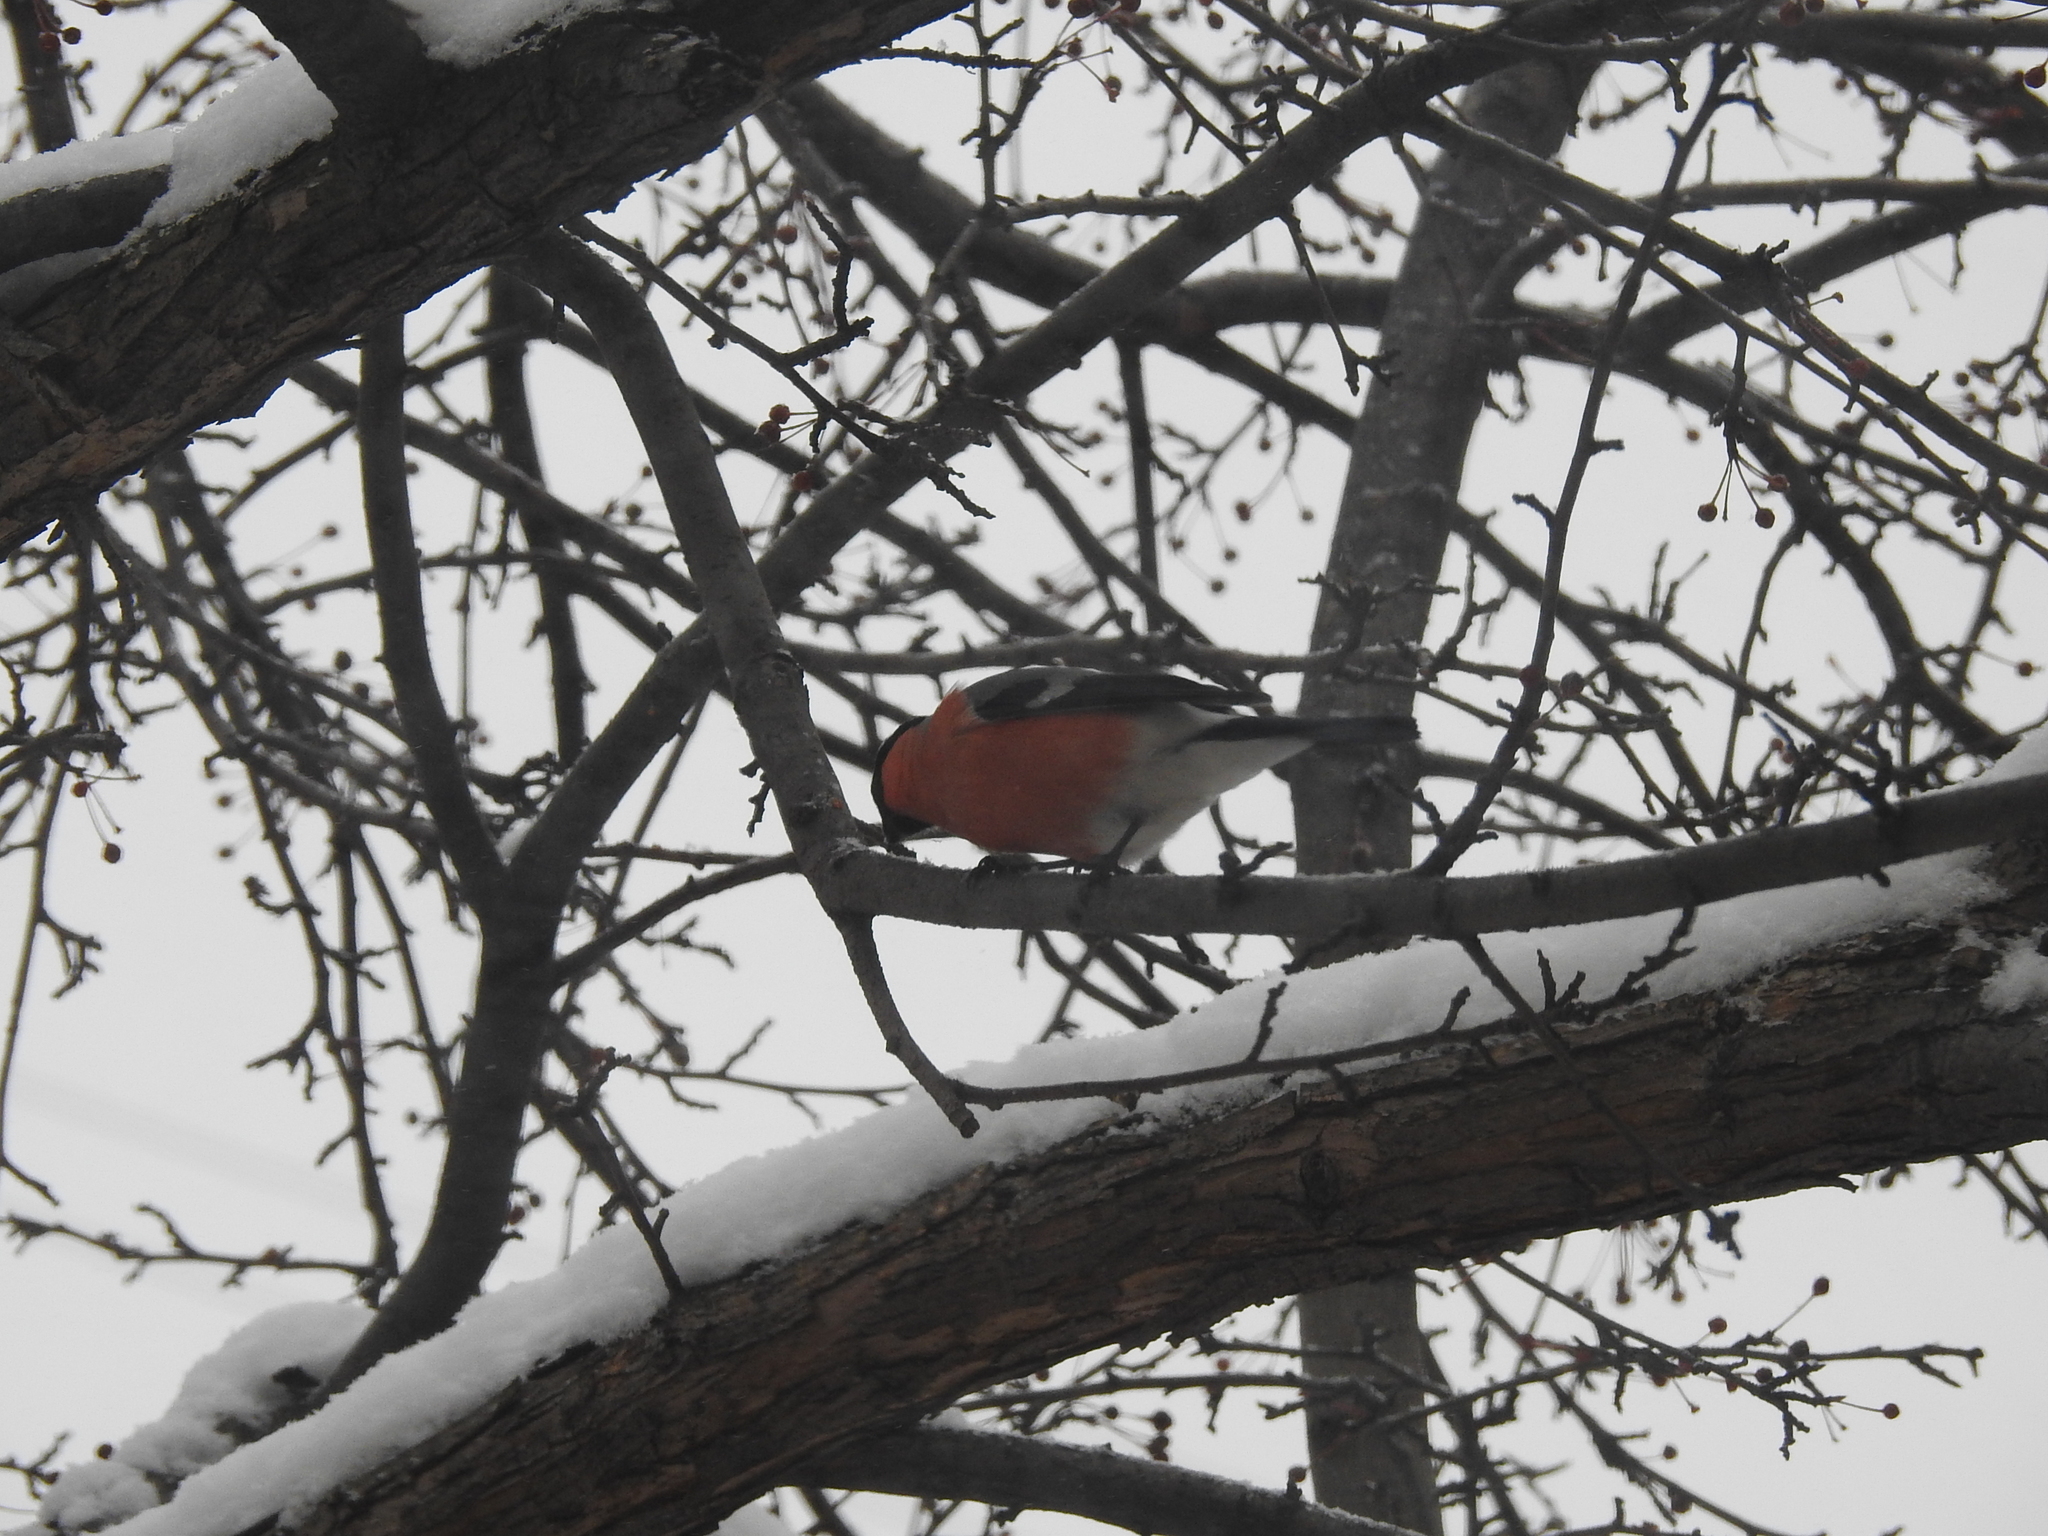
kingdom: Animalia
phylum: Chordata
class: Aves
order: Passeriformes
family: Fringillidae
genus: Pyrrhula
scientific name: Pyrrhula pyrrhula
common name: Eurasian bullfinch
